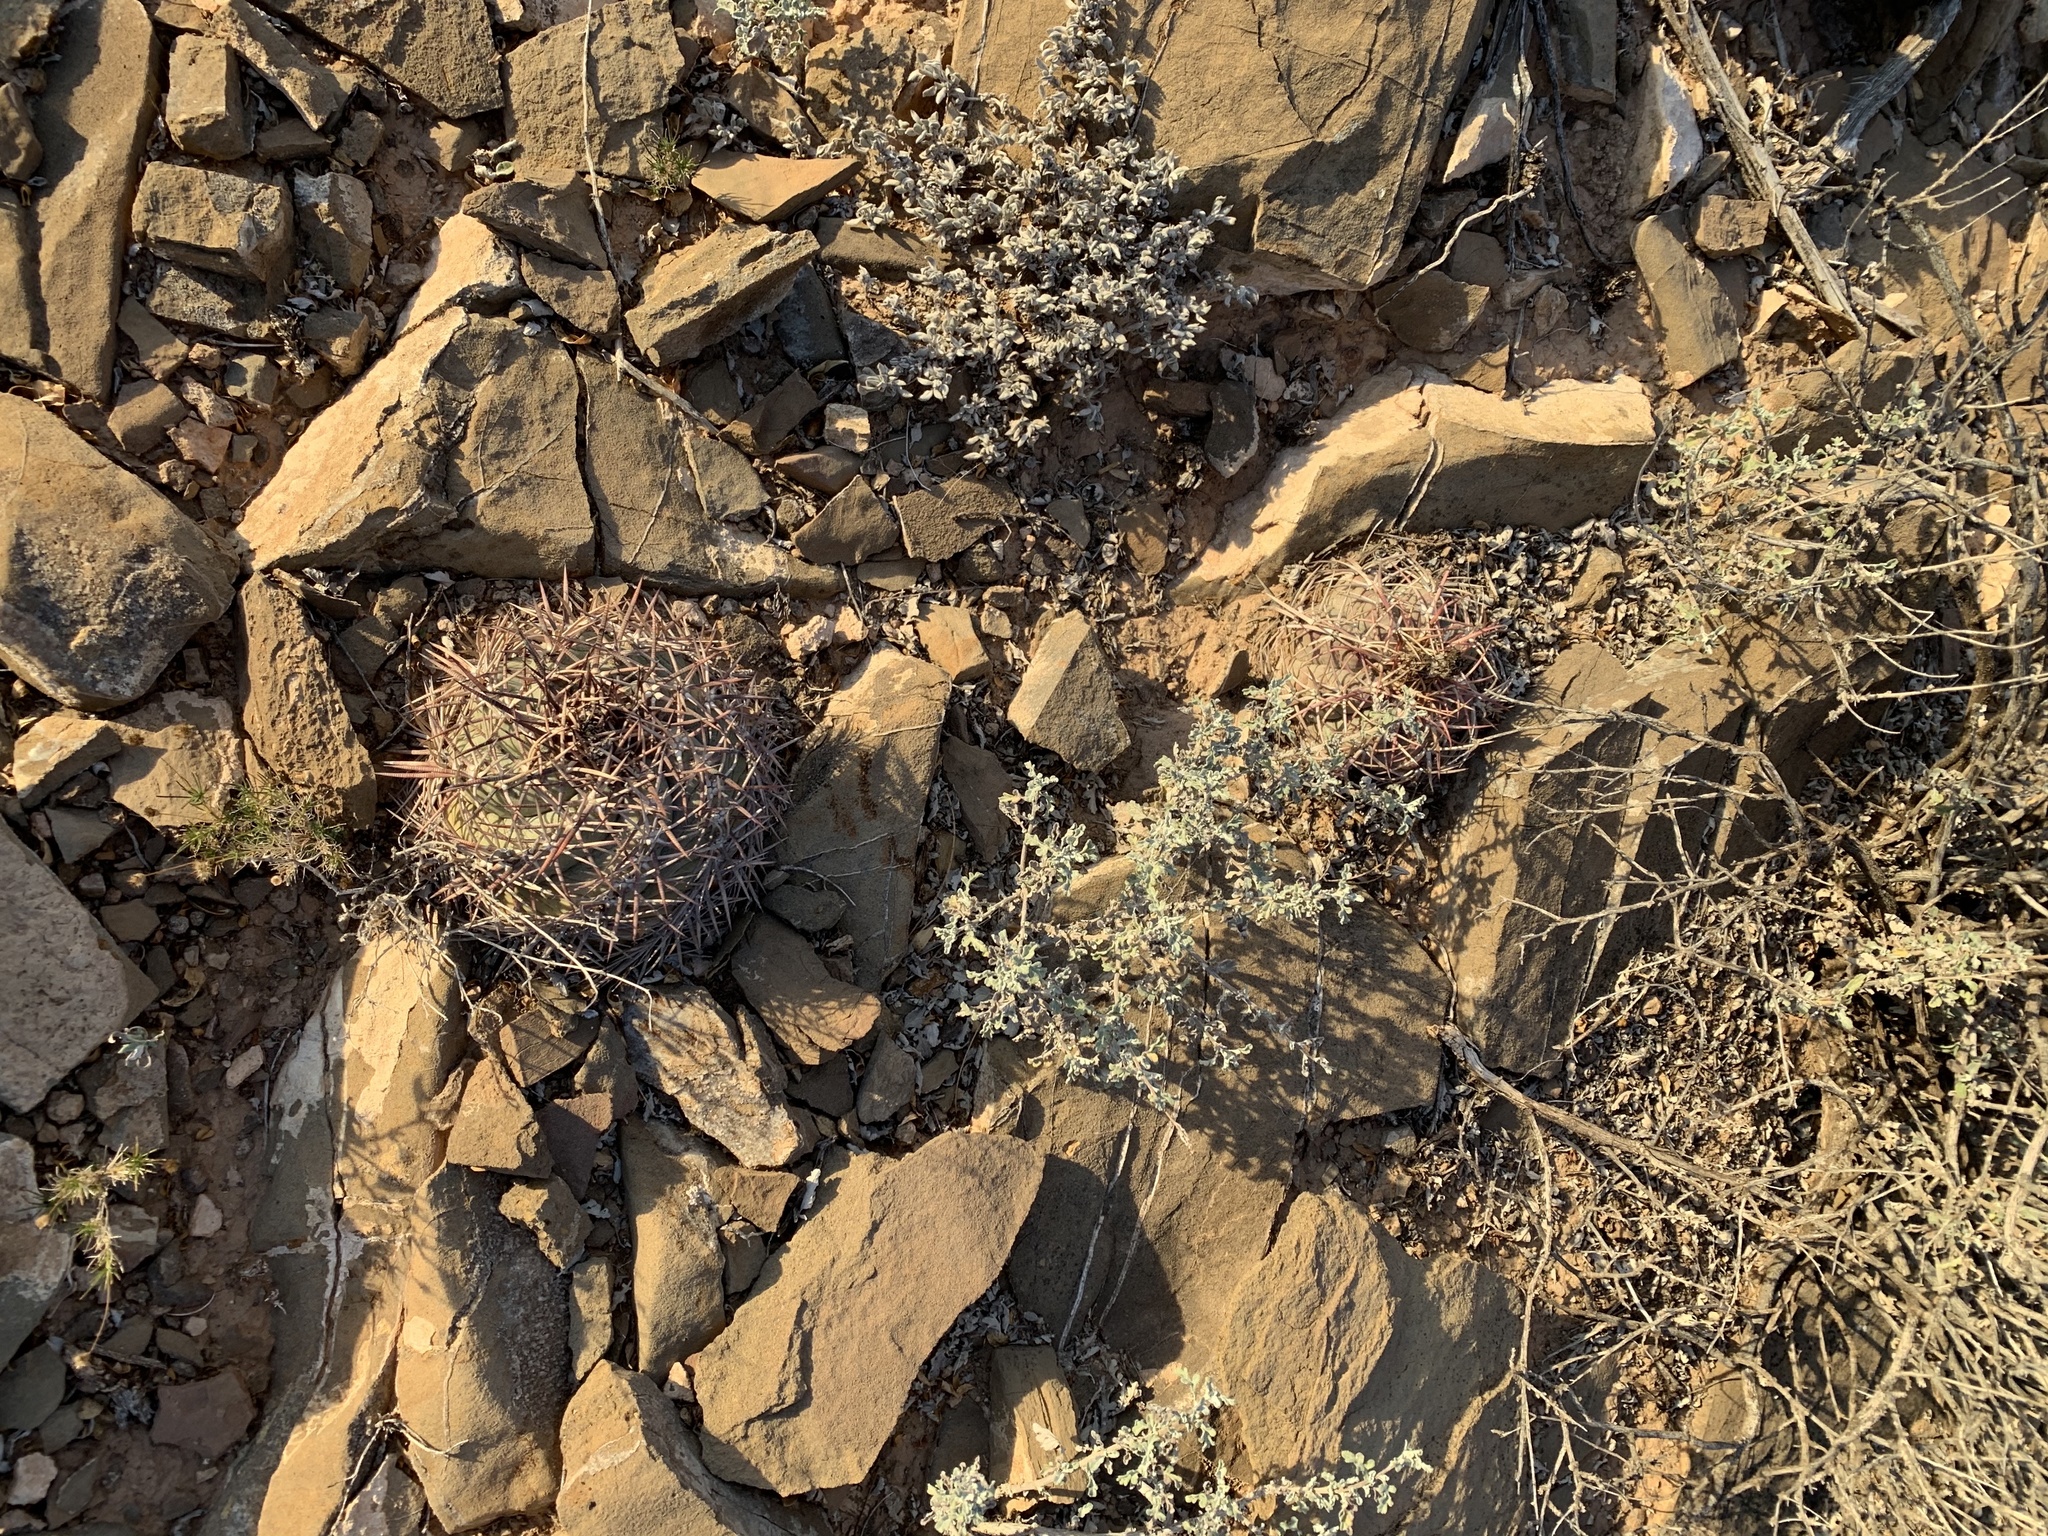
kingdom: Plantae
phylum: Tracheophyta
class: Magnoliopsida
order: Caryophyllales
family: Cactaceae
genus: Echinocactus
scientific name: Echinocactus horizonthalonius
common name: Devilshead
